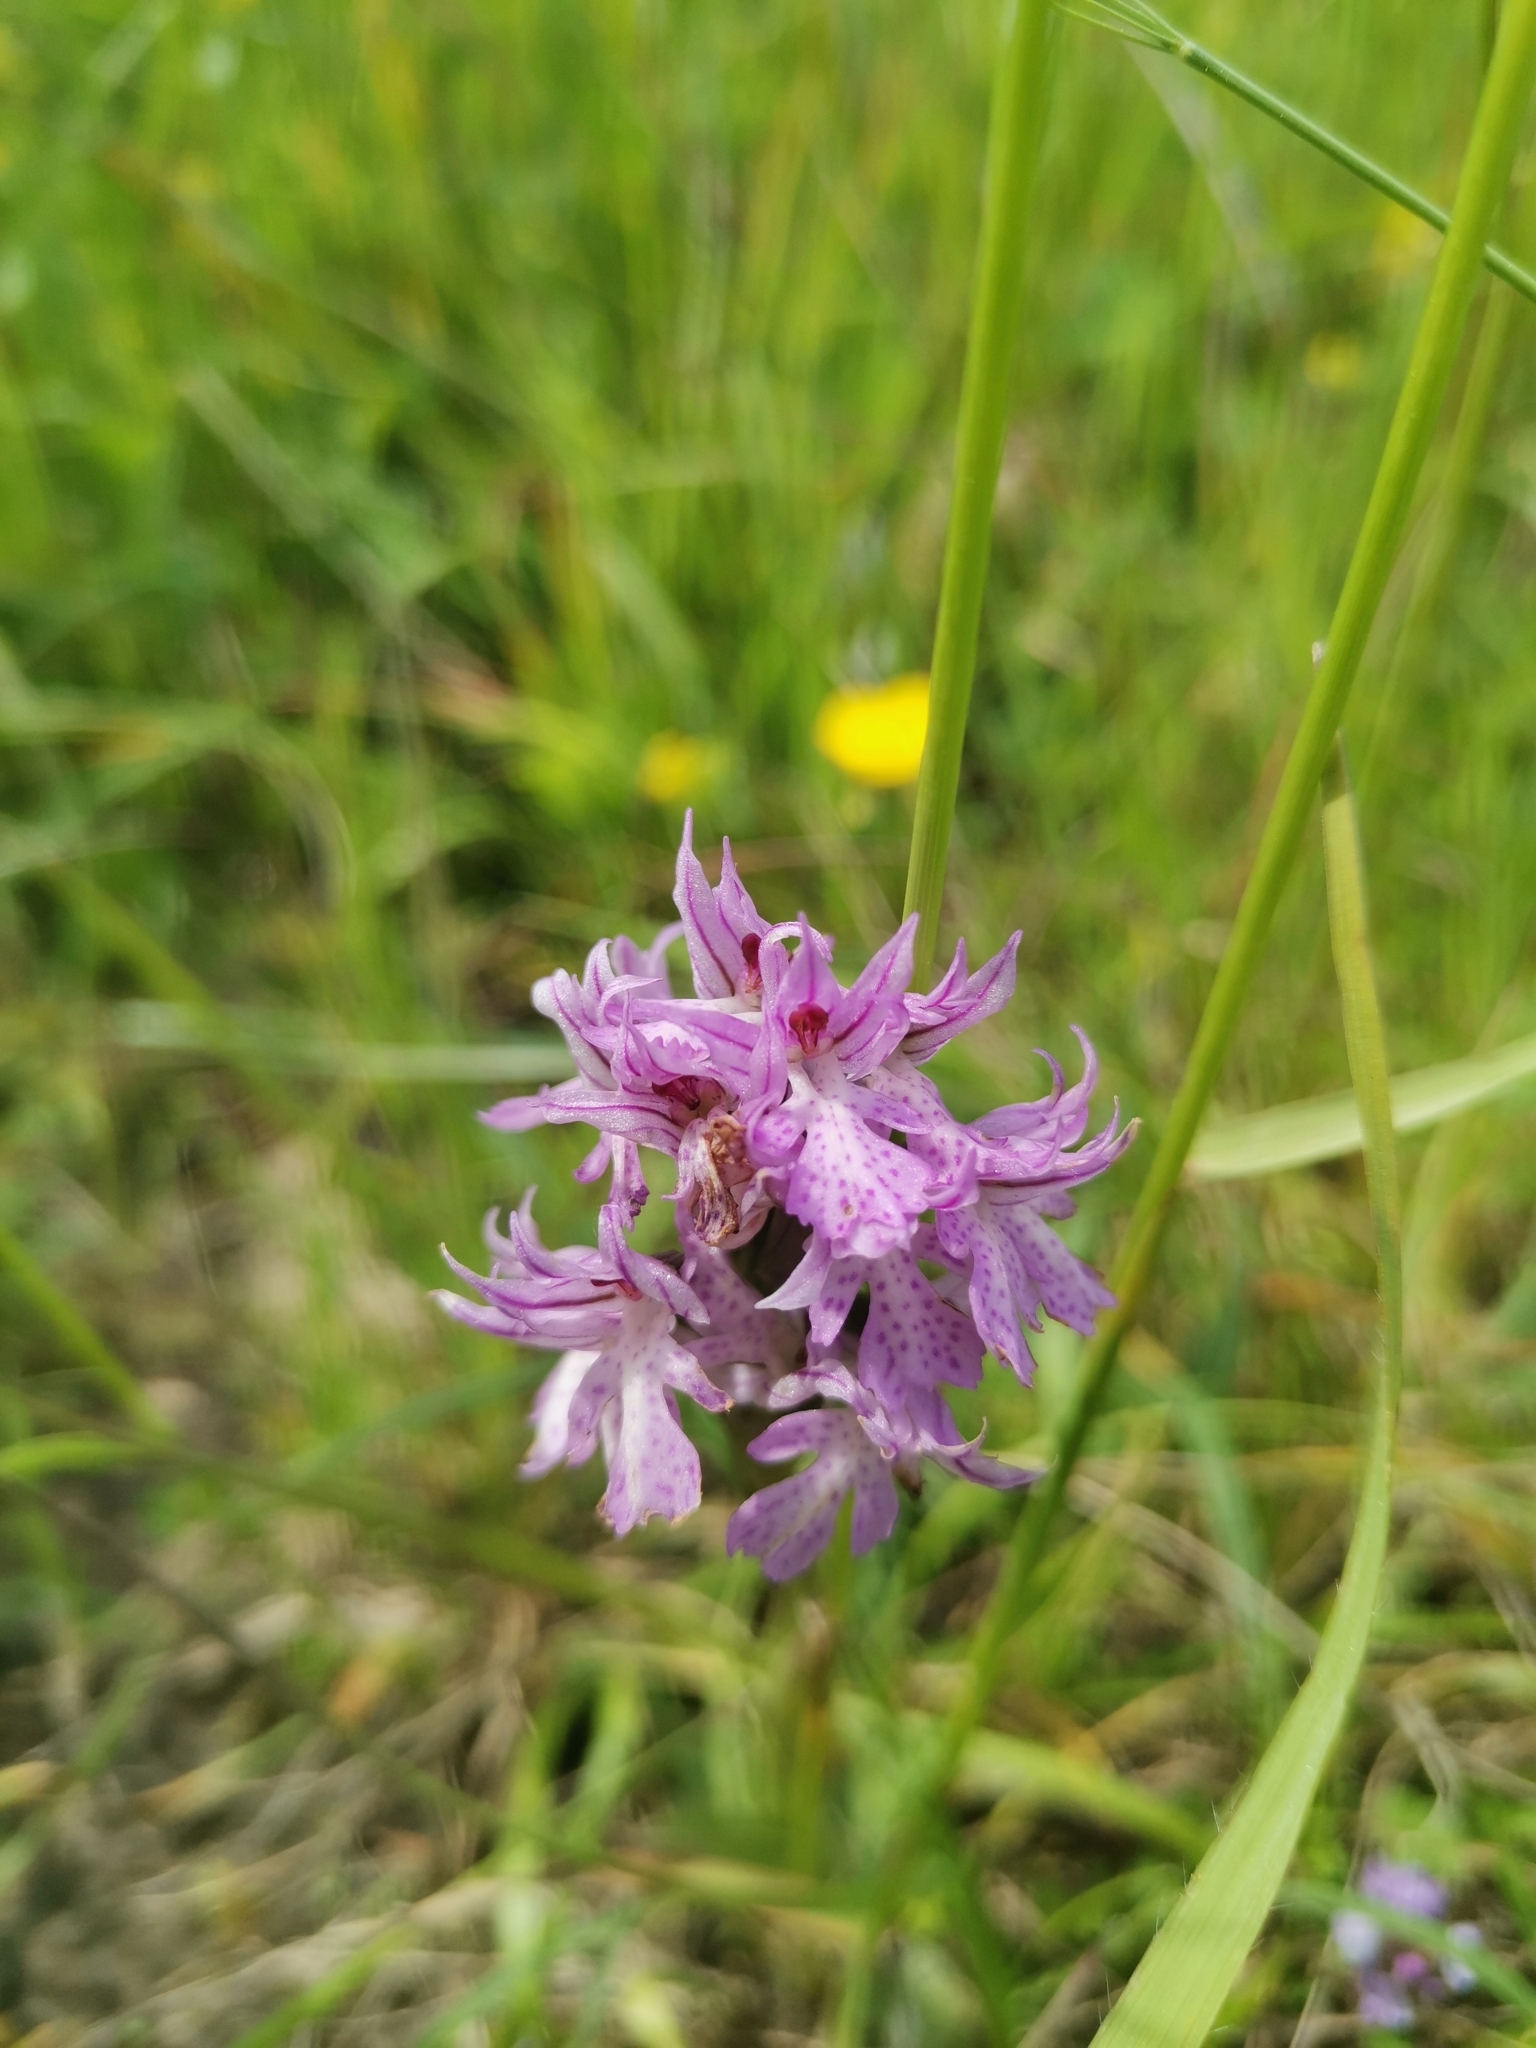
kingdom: Plantae
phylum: Tracheophyta
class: Liliopsida
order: Asparagales
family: Orchidaceae
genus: Neotinea
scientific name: Neotinea tridentata
